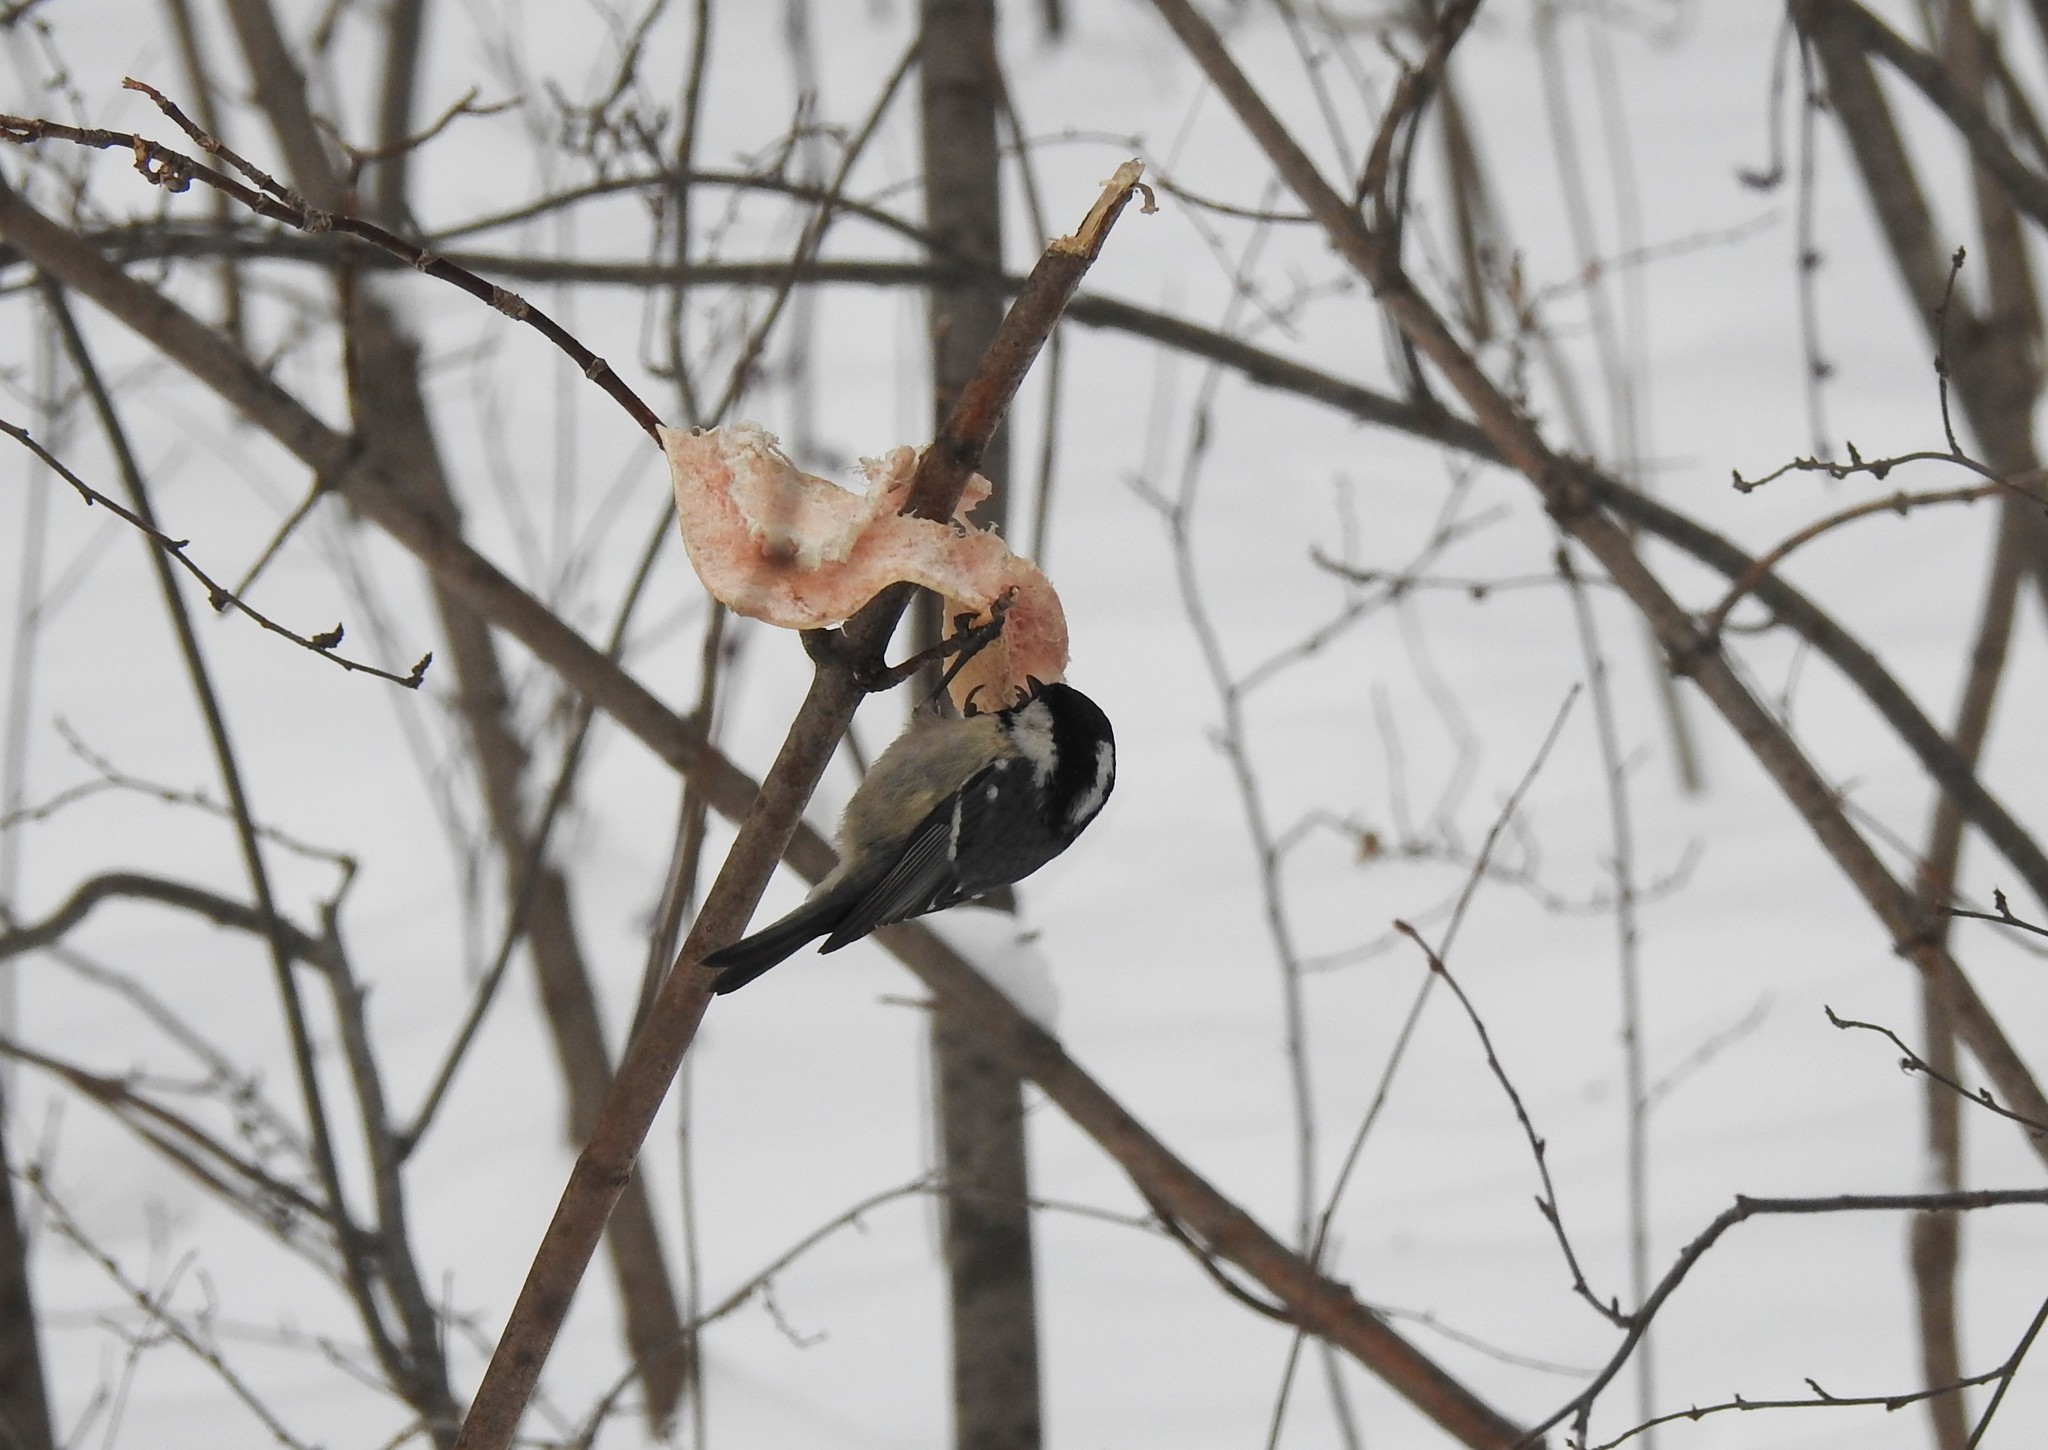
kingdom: Animalia
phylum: Chordata
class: Aves
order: Passeriformes
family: Paridae
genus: Periparus
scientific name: Periparus ater
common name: Coal tit
